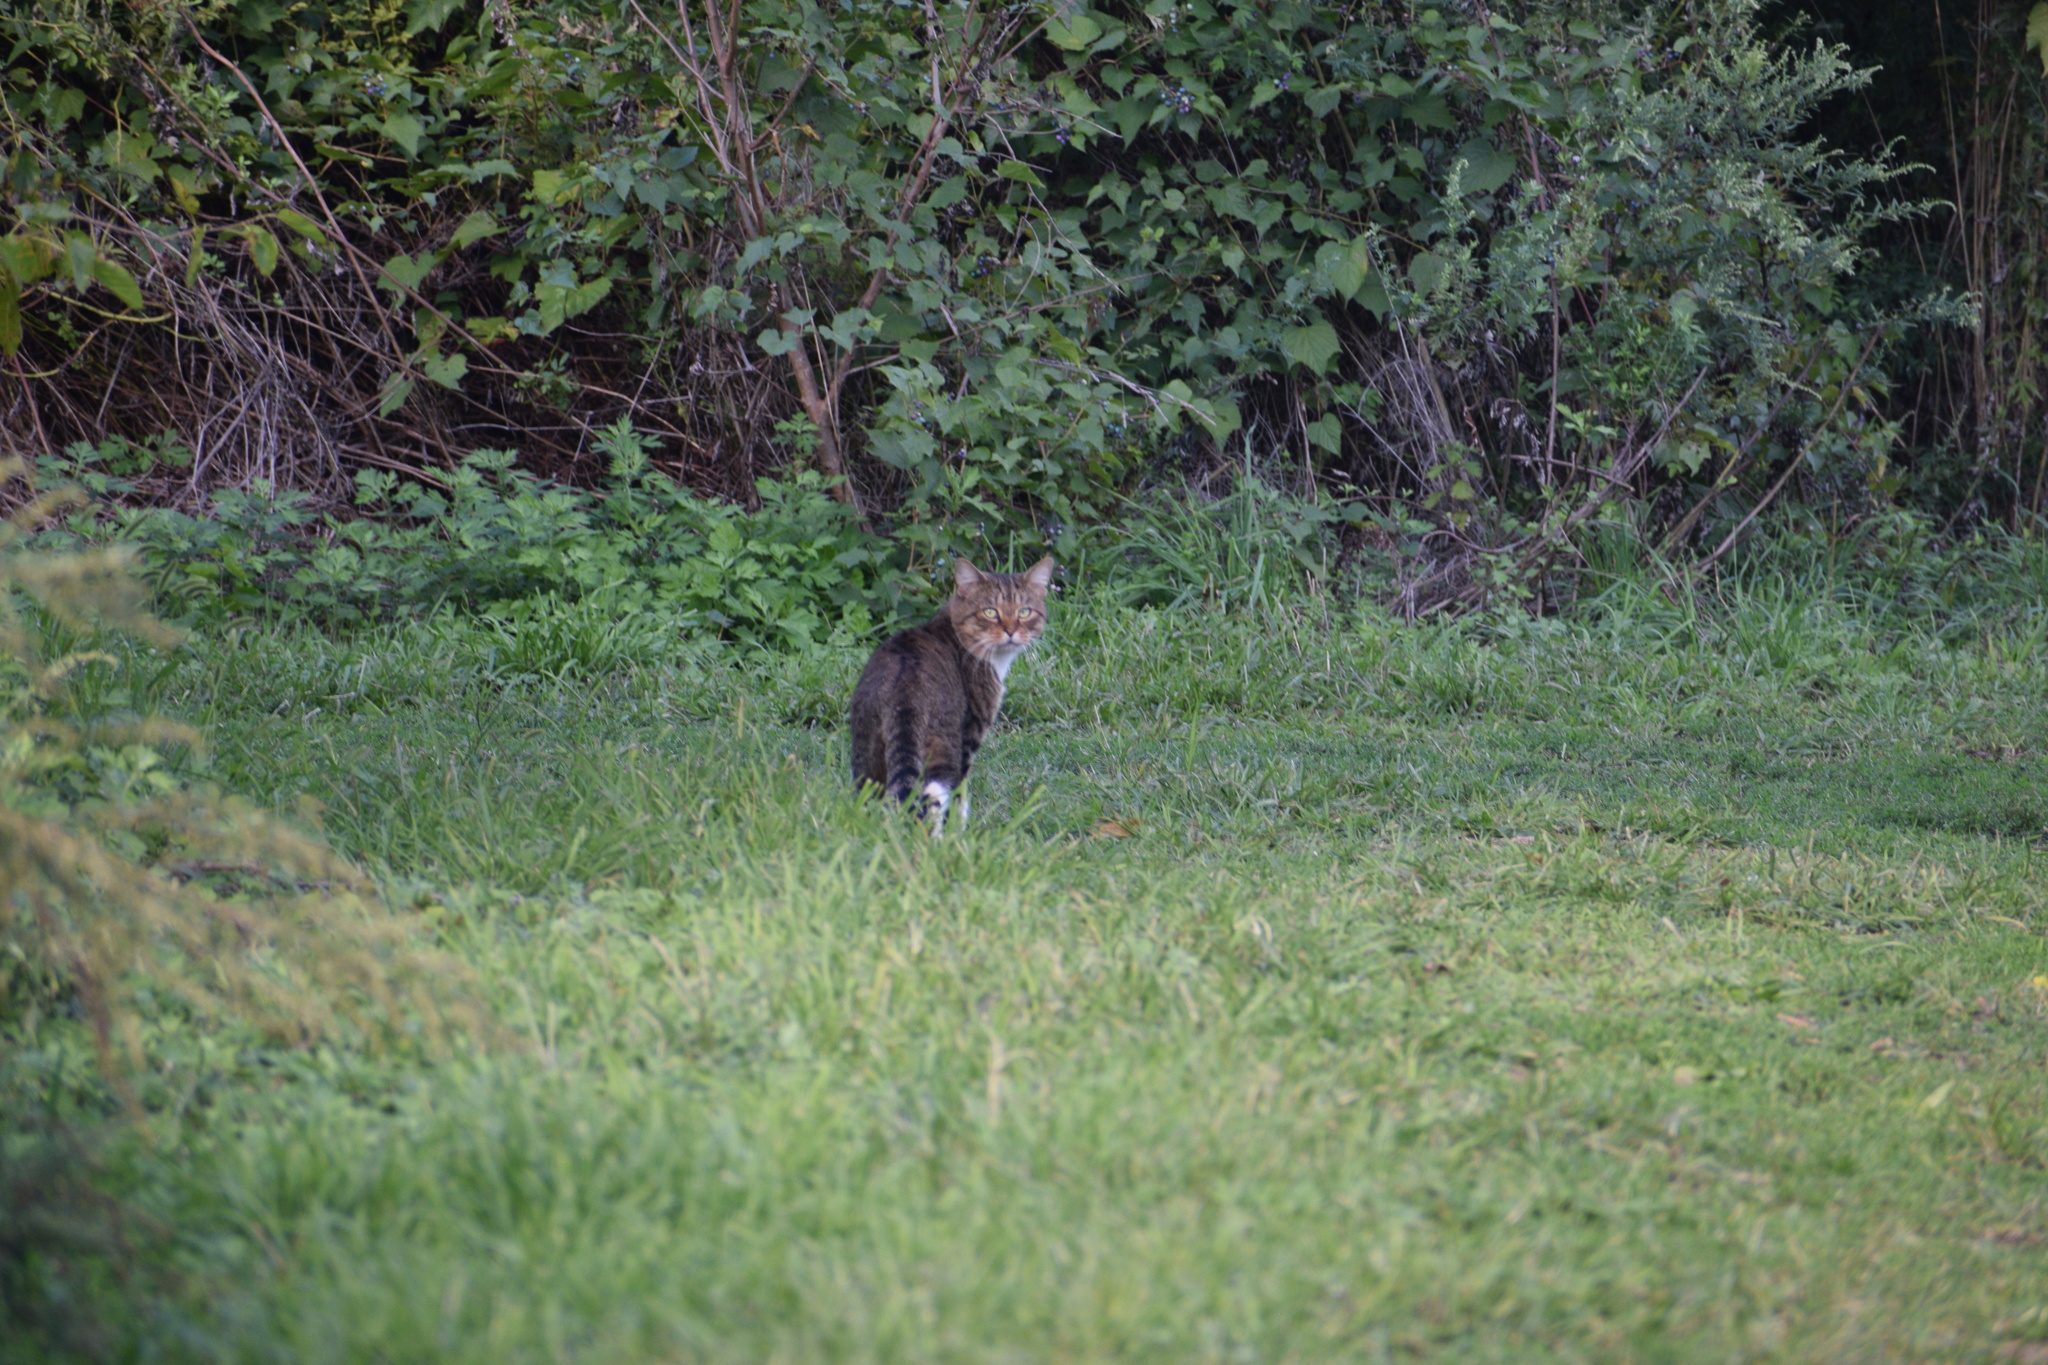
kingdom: Animalia
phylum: Chordata
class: Mammalia
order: Carnivora
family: Felidae
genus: Felis
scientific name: Felis catus
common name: Domestic cat
